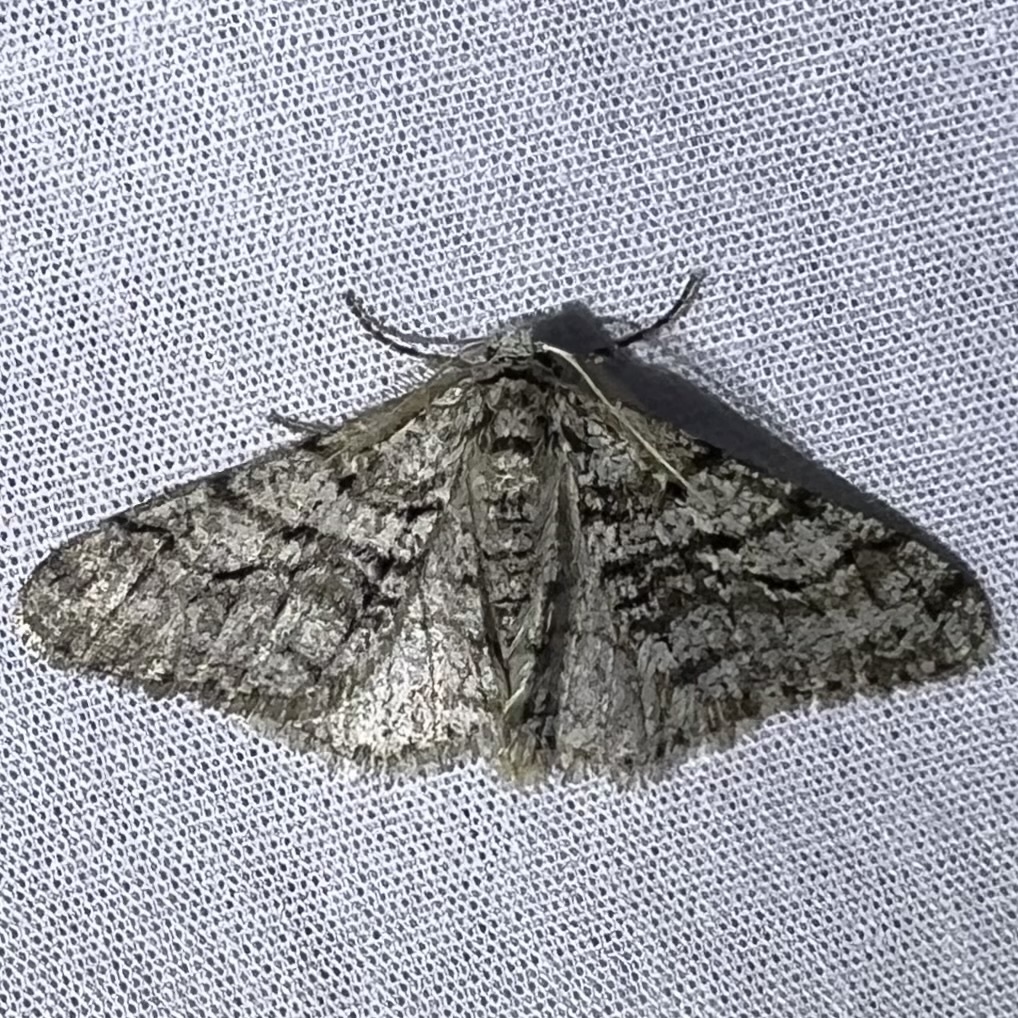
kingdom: Animalia
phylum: Arthropoda
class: Insecta
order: Lepidoptera
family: Geometridae
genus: Phigalia
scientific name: Phigalia titea
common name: Spiny looper
